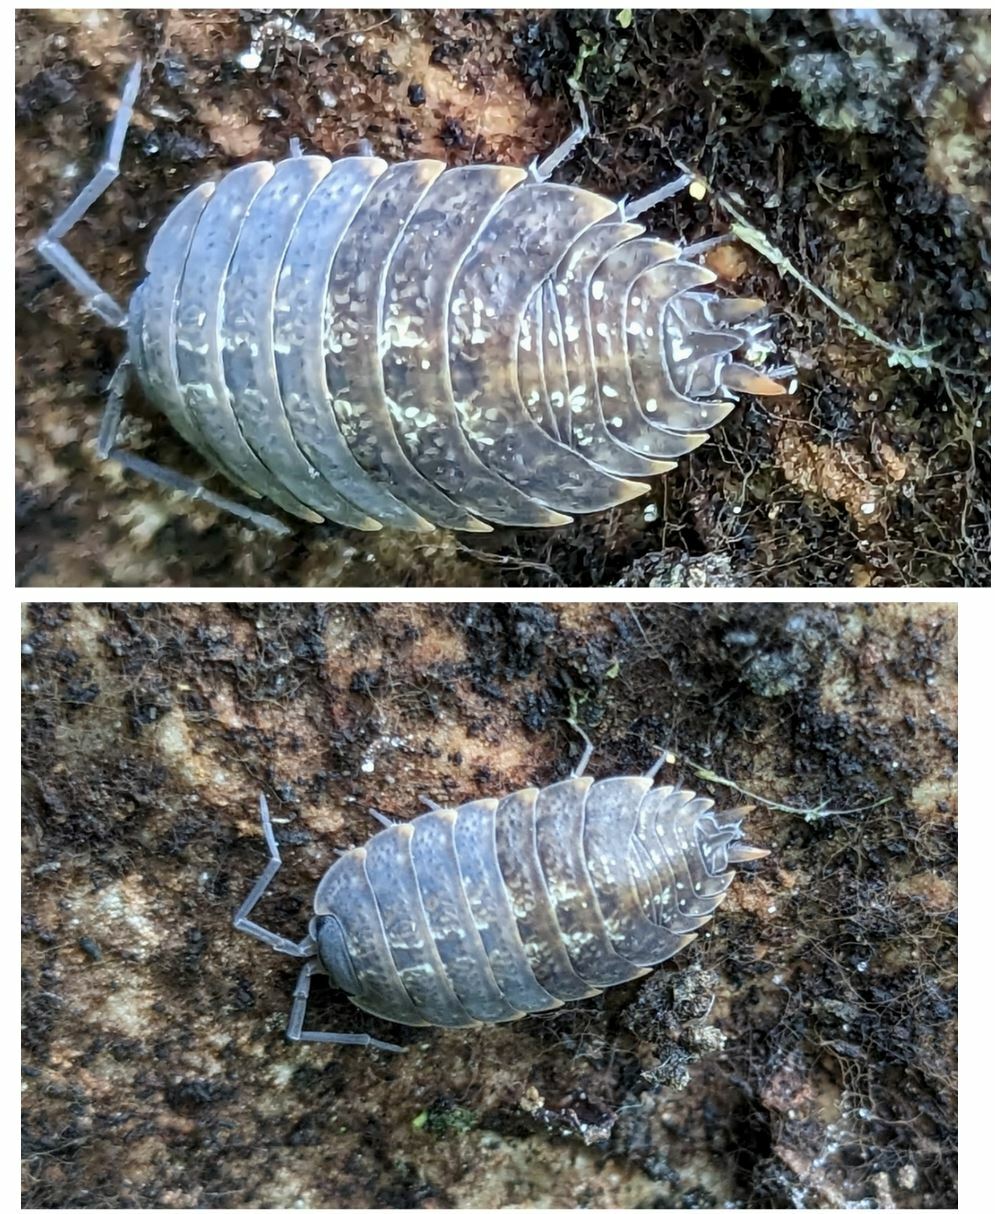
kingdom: Animalia
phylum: Arthropoda
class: Malacostraca
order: Isopoda
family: Porcellionidae
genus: Porcellio
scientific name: Porcellio monticola
